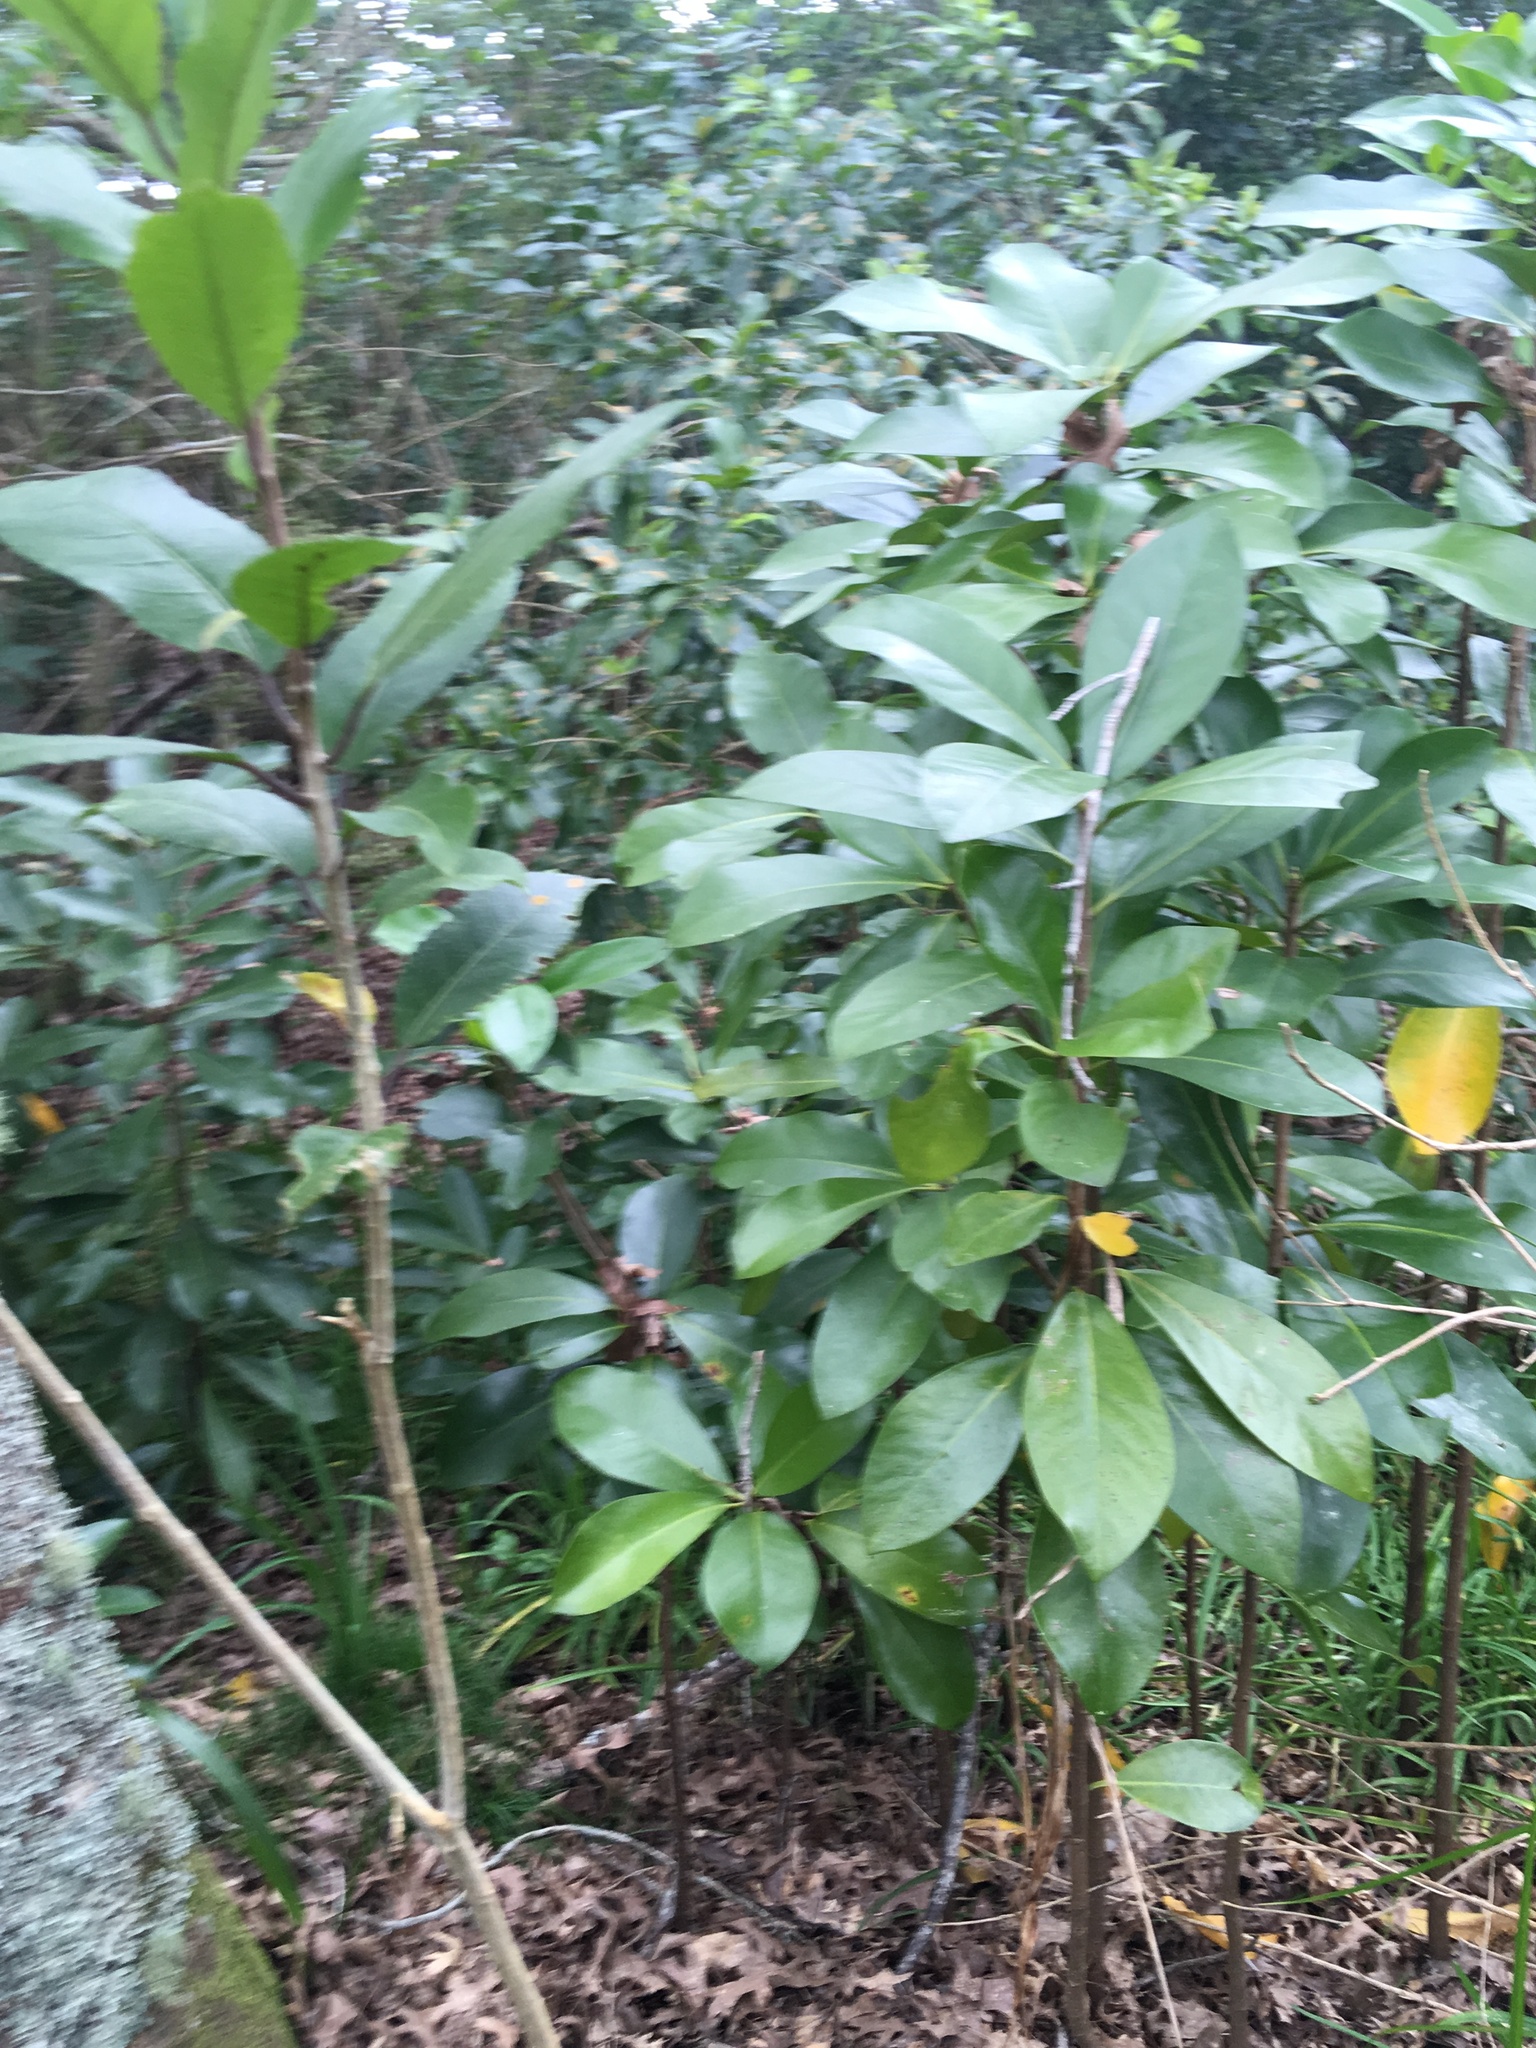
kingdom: Plantae
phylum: Tracheophyta
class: Magnoliopsida
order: Cucurbitales
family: Corynocarpaceae
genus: Corynocarpus
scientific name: Corynocarpus laevigatus
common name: New zealand laurel
